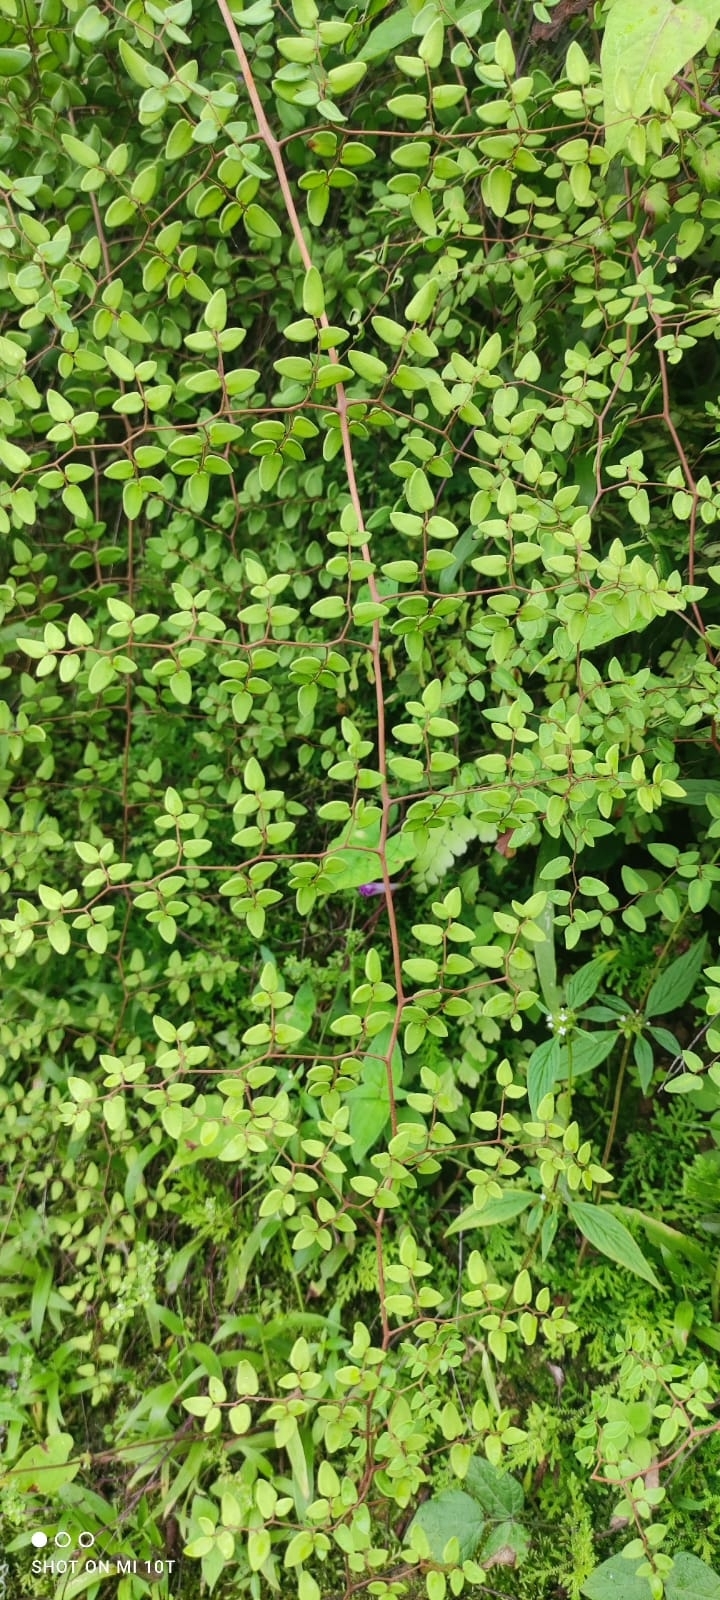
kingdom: Plantae
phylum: Tracheophyta
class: Polypodiopsida
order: Polypodiales
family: Pteridaceae
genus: Pellaea
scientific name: Pellaea ovata
